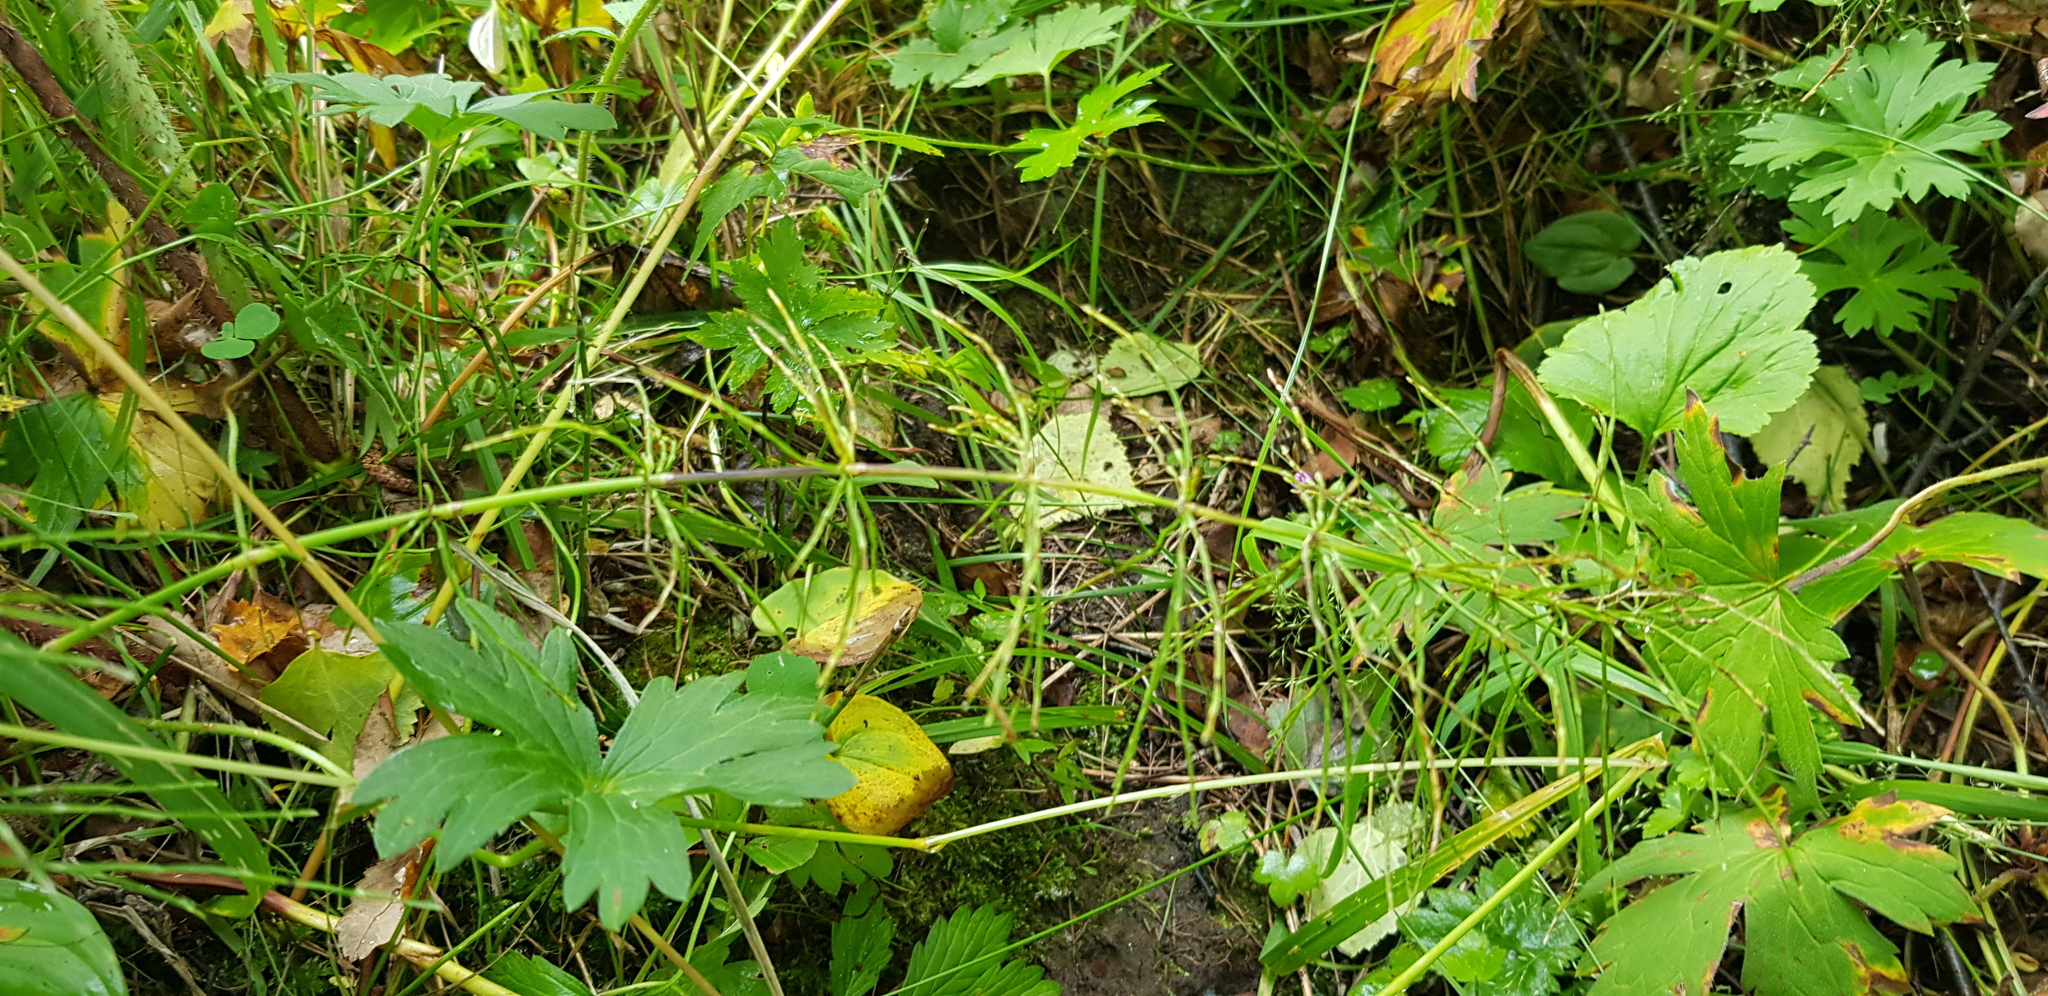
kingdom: Plantae
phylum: Tracheophyta
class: Magnoliopsida
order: Geraniales
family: Geraniaceae
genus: Geranium
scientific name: Geranium collinum
